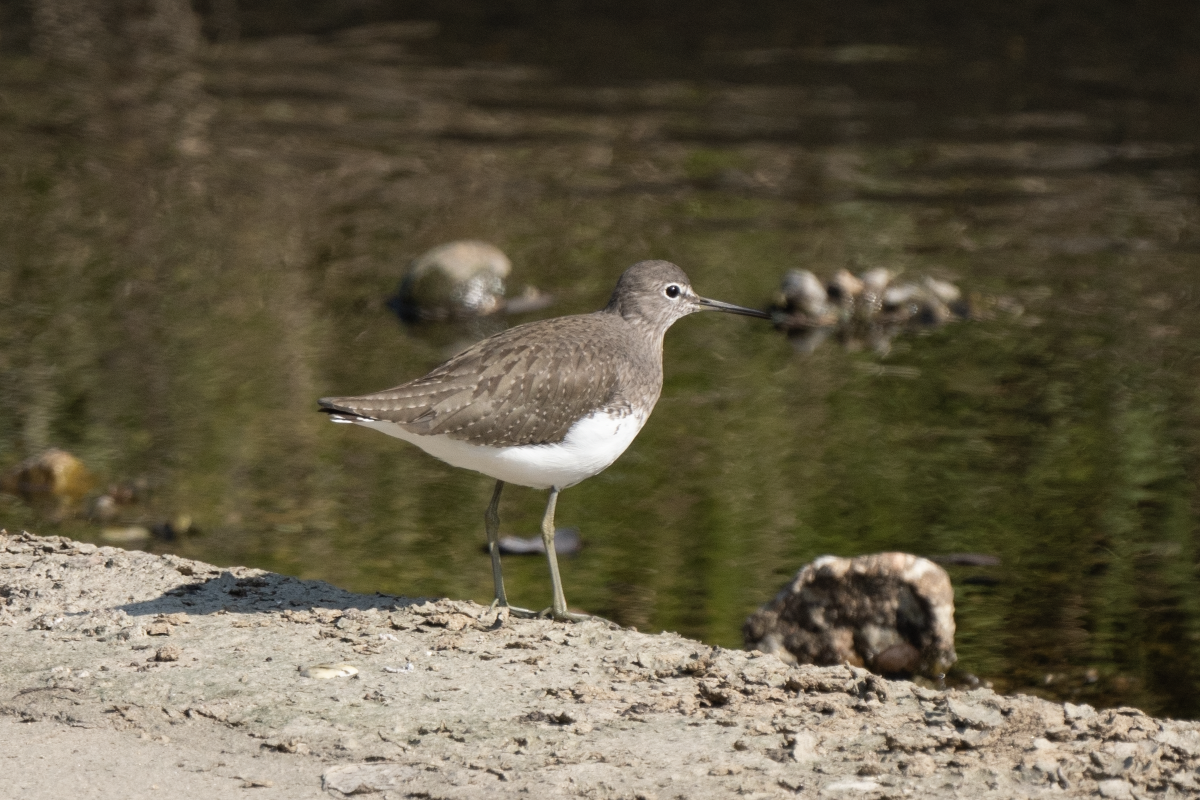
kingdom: Animalia
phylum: Chordata
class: Aves
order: Charadriiformes
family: Scolopacidae
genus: Tringa
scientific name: Tringa ochropus
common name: Green sandpiper
